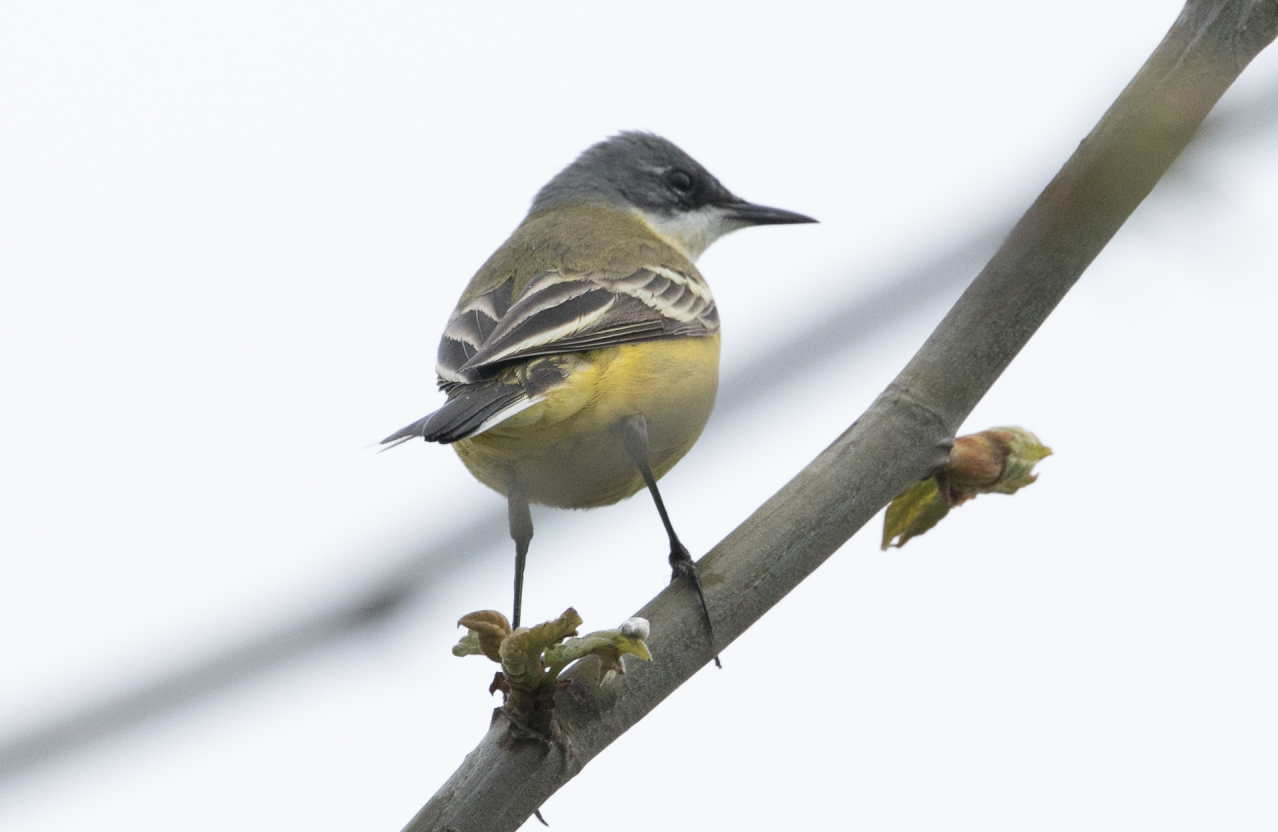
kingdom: Animalia
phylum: Chordata
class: Aves
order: Passeriformes
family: Motacillidae
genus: Motacilla
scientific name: Motacilla flava
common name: Western yellow wagtail
